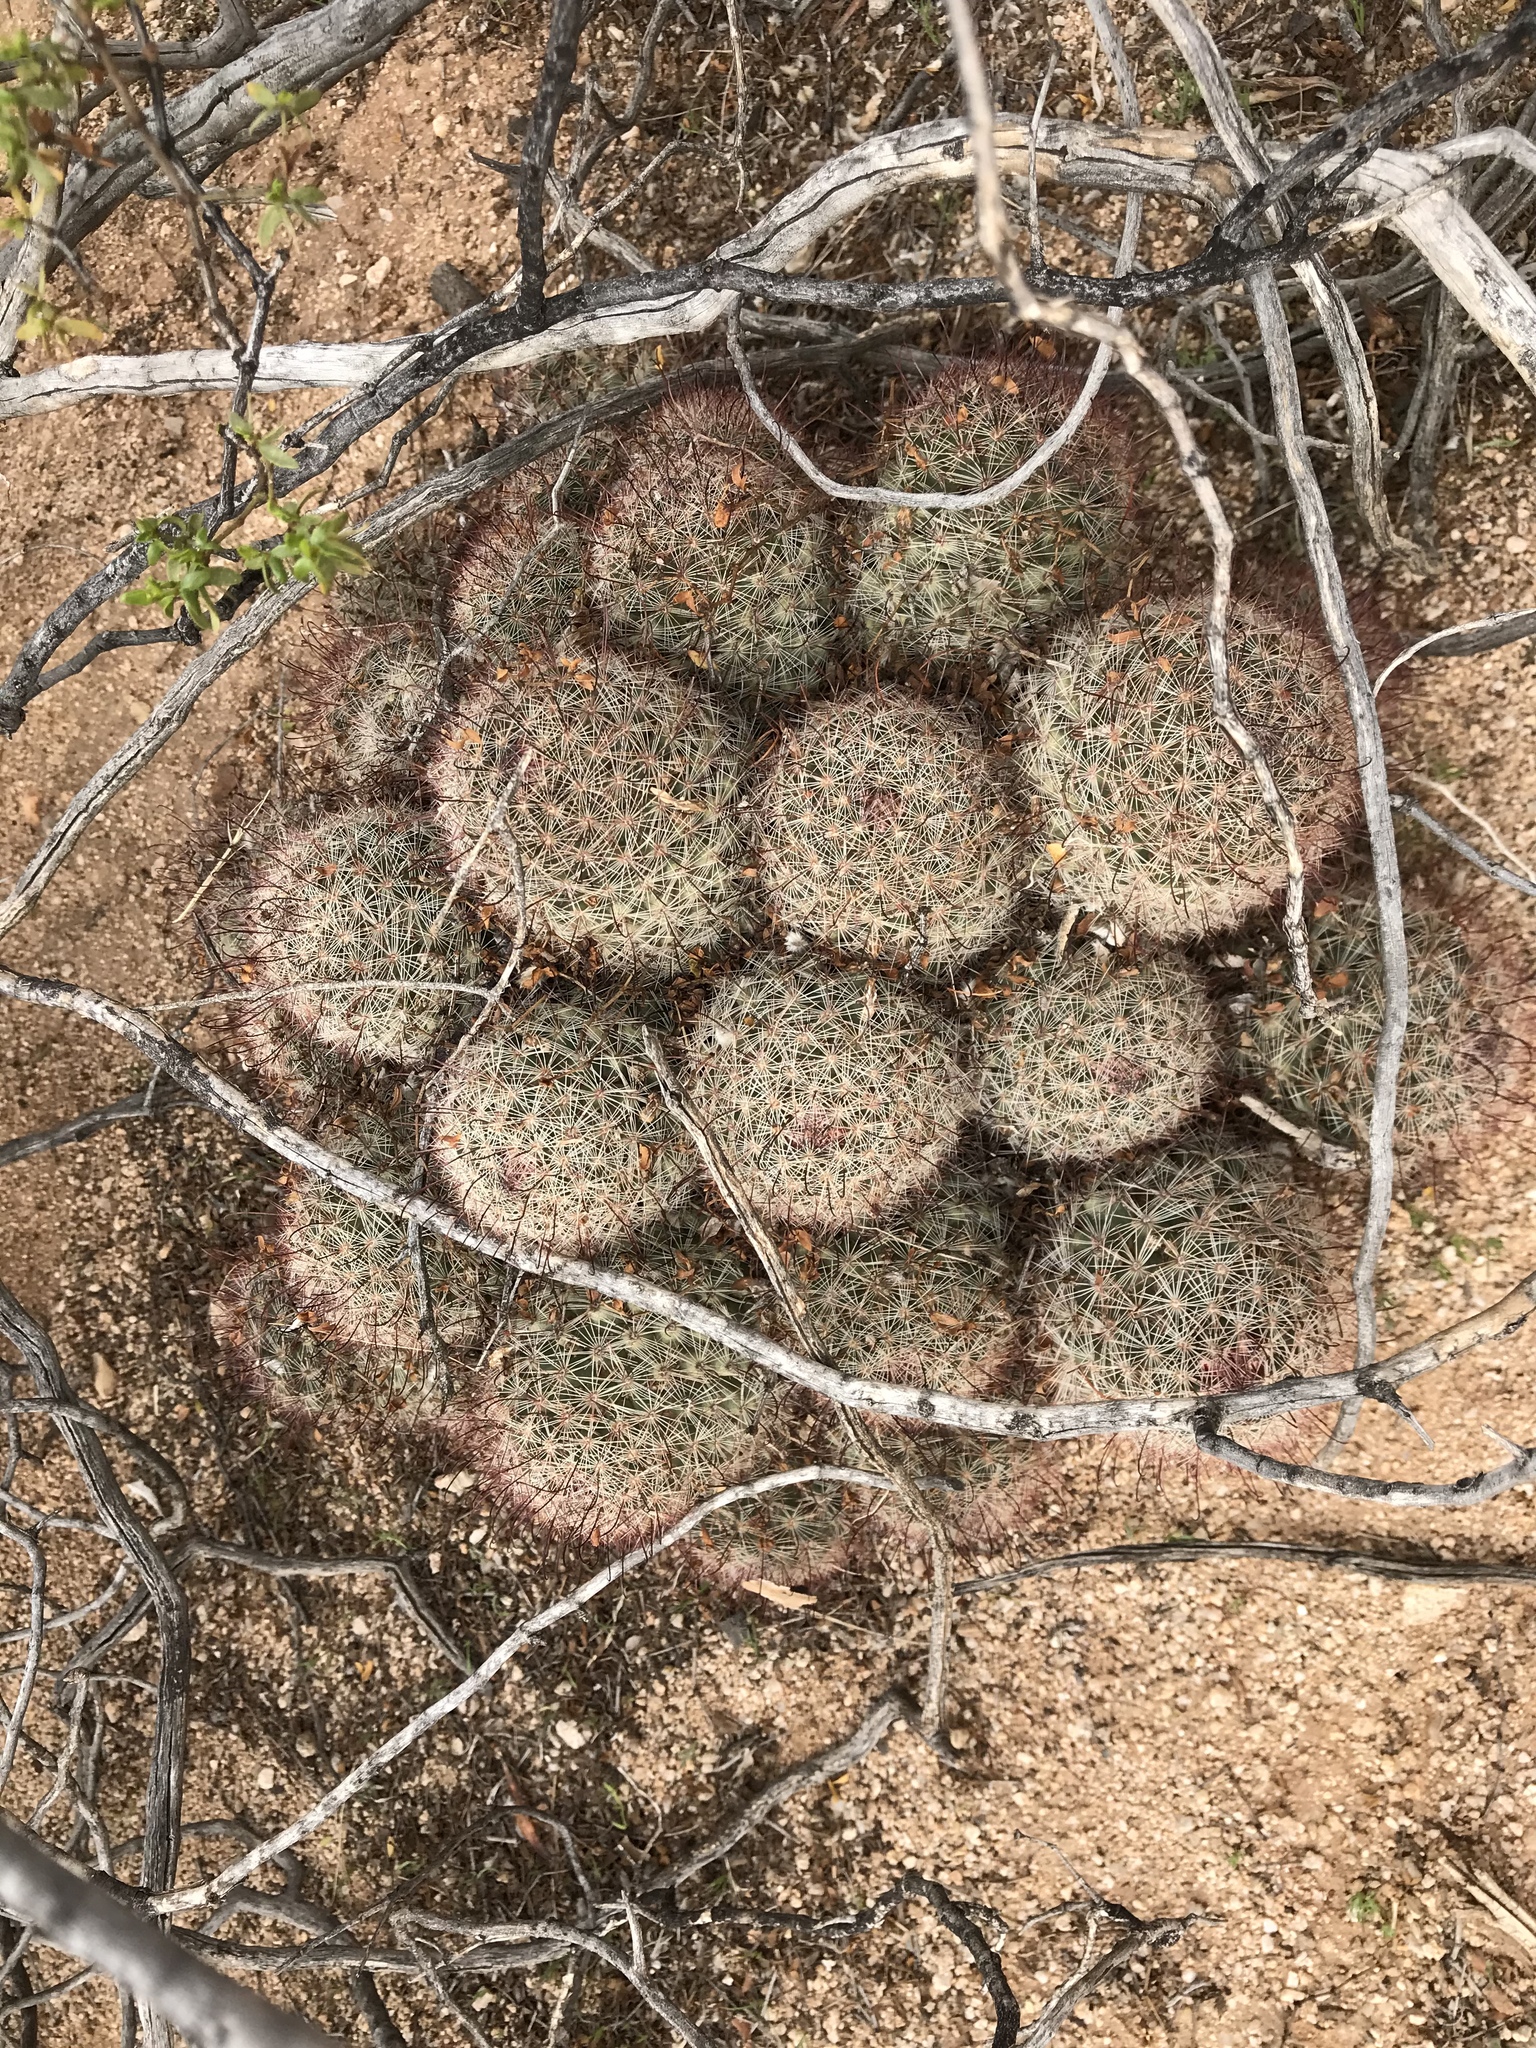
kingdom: Plantae
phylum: Tracheophyta
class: Magnoliopsida
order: Caryophyllales
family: Cactaceae
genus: Cochemiea
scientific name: Cochemiea grahamii
